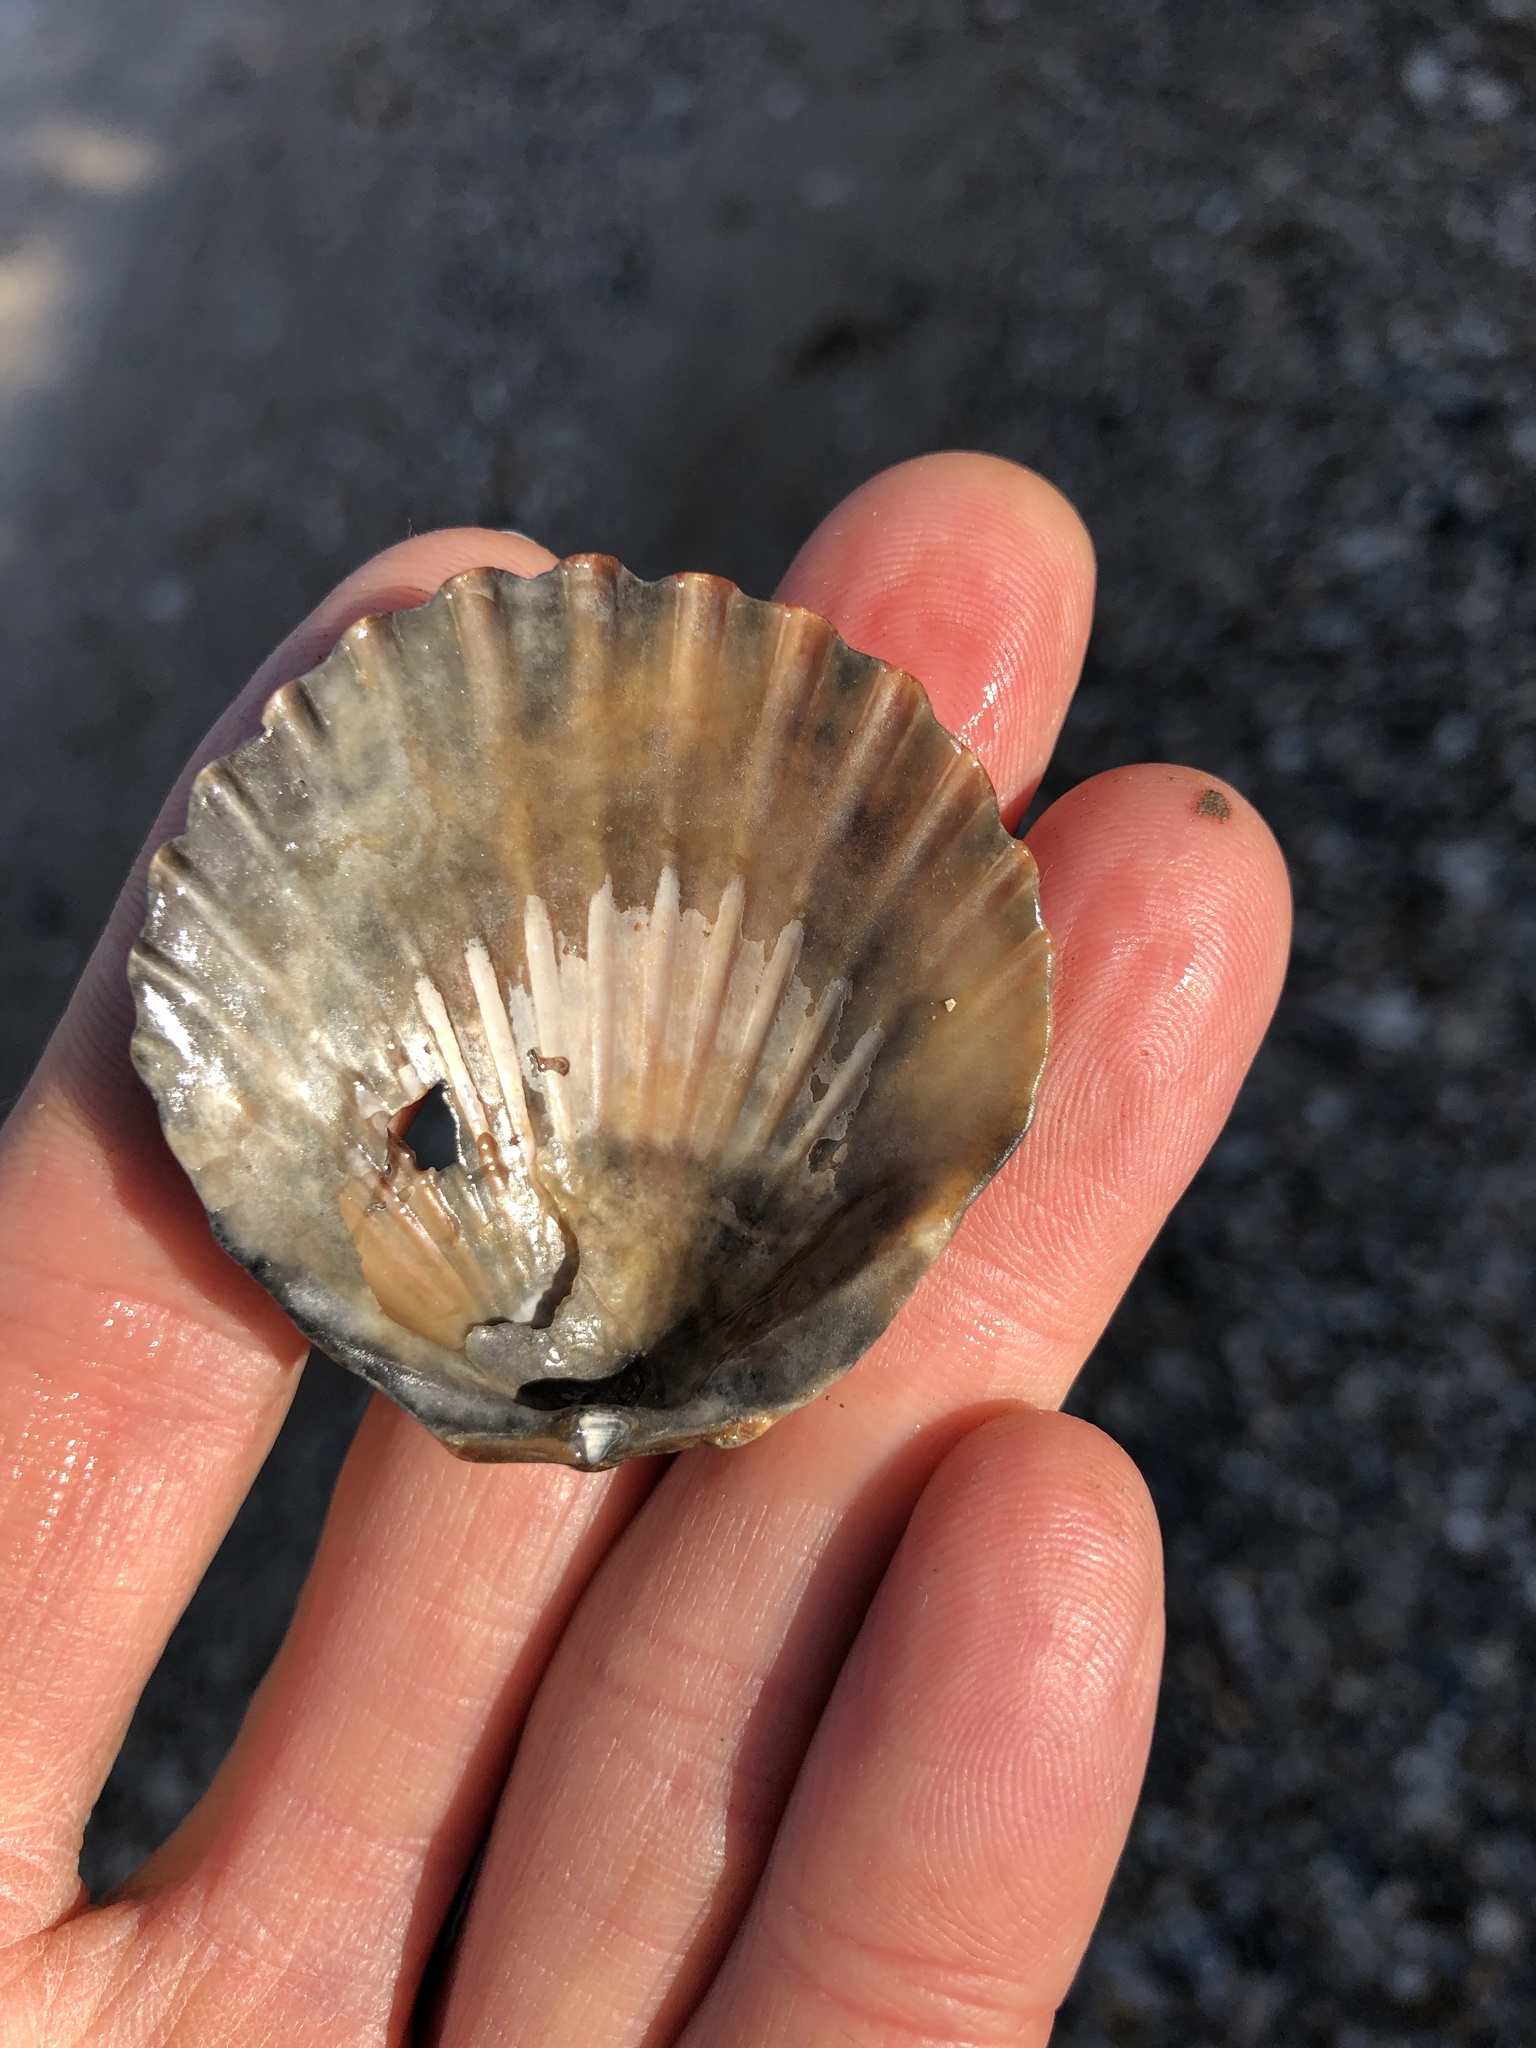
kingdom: Animalia
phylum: Mollusca
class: Bivalvia
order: Pectinida
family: Pectinidae
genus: Argopecten
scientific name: Argopecten irradians
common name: Atlantic bay scallop
